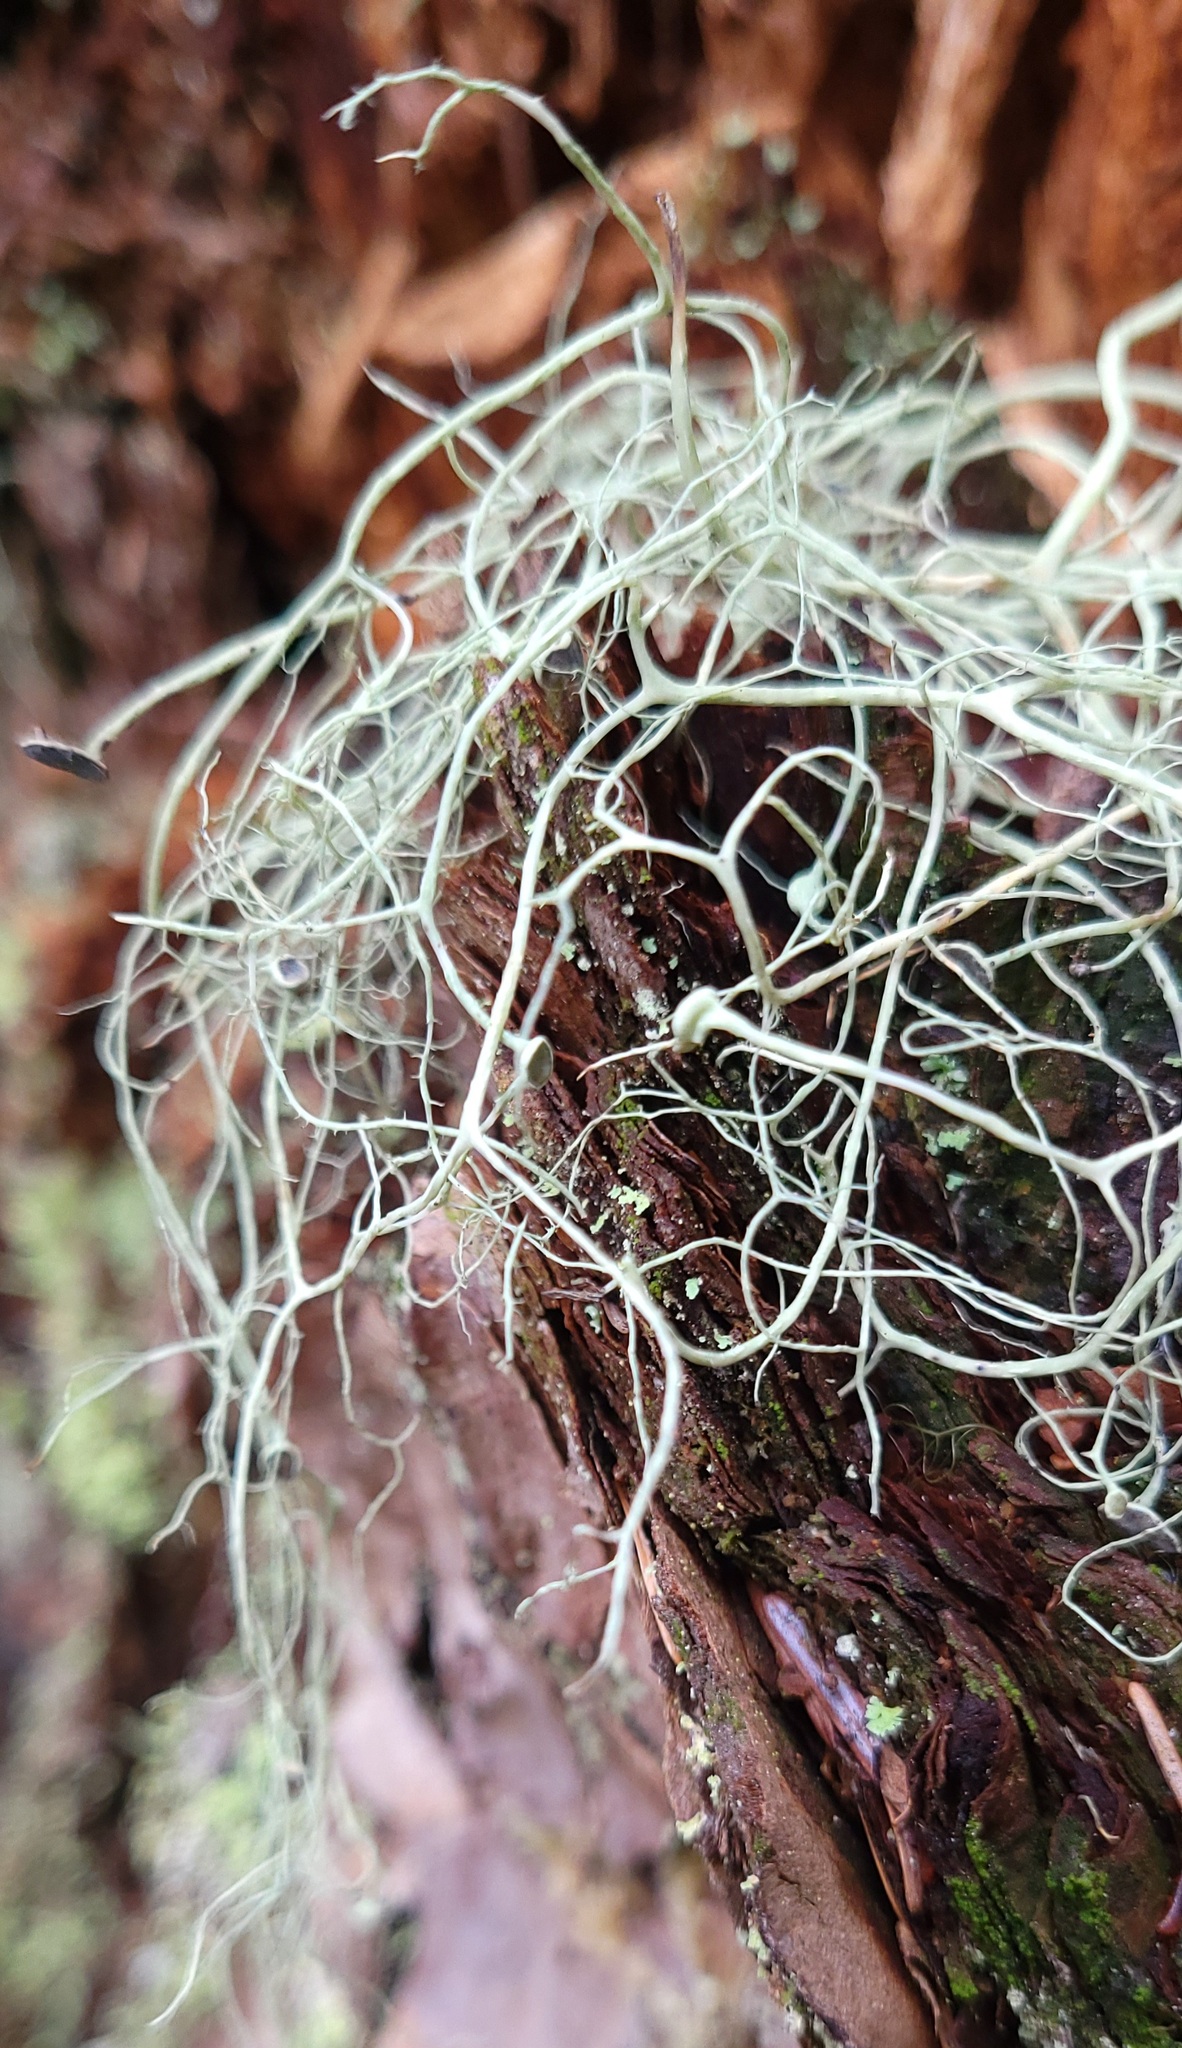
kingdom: Fungi
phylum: Ascomycota
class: Lecanoromycetes
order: Lecanorales
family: Parmeliaceae
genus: Alectoria
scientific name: Alectoria sarmentosa
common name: Witch's hair
